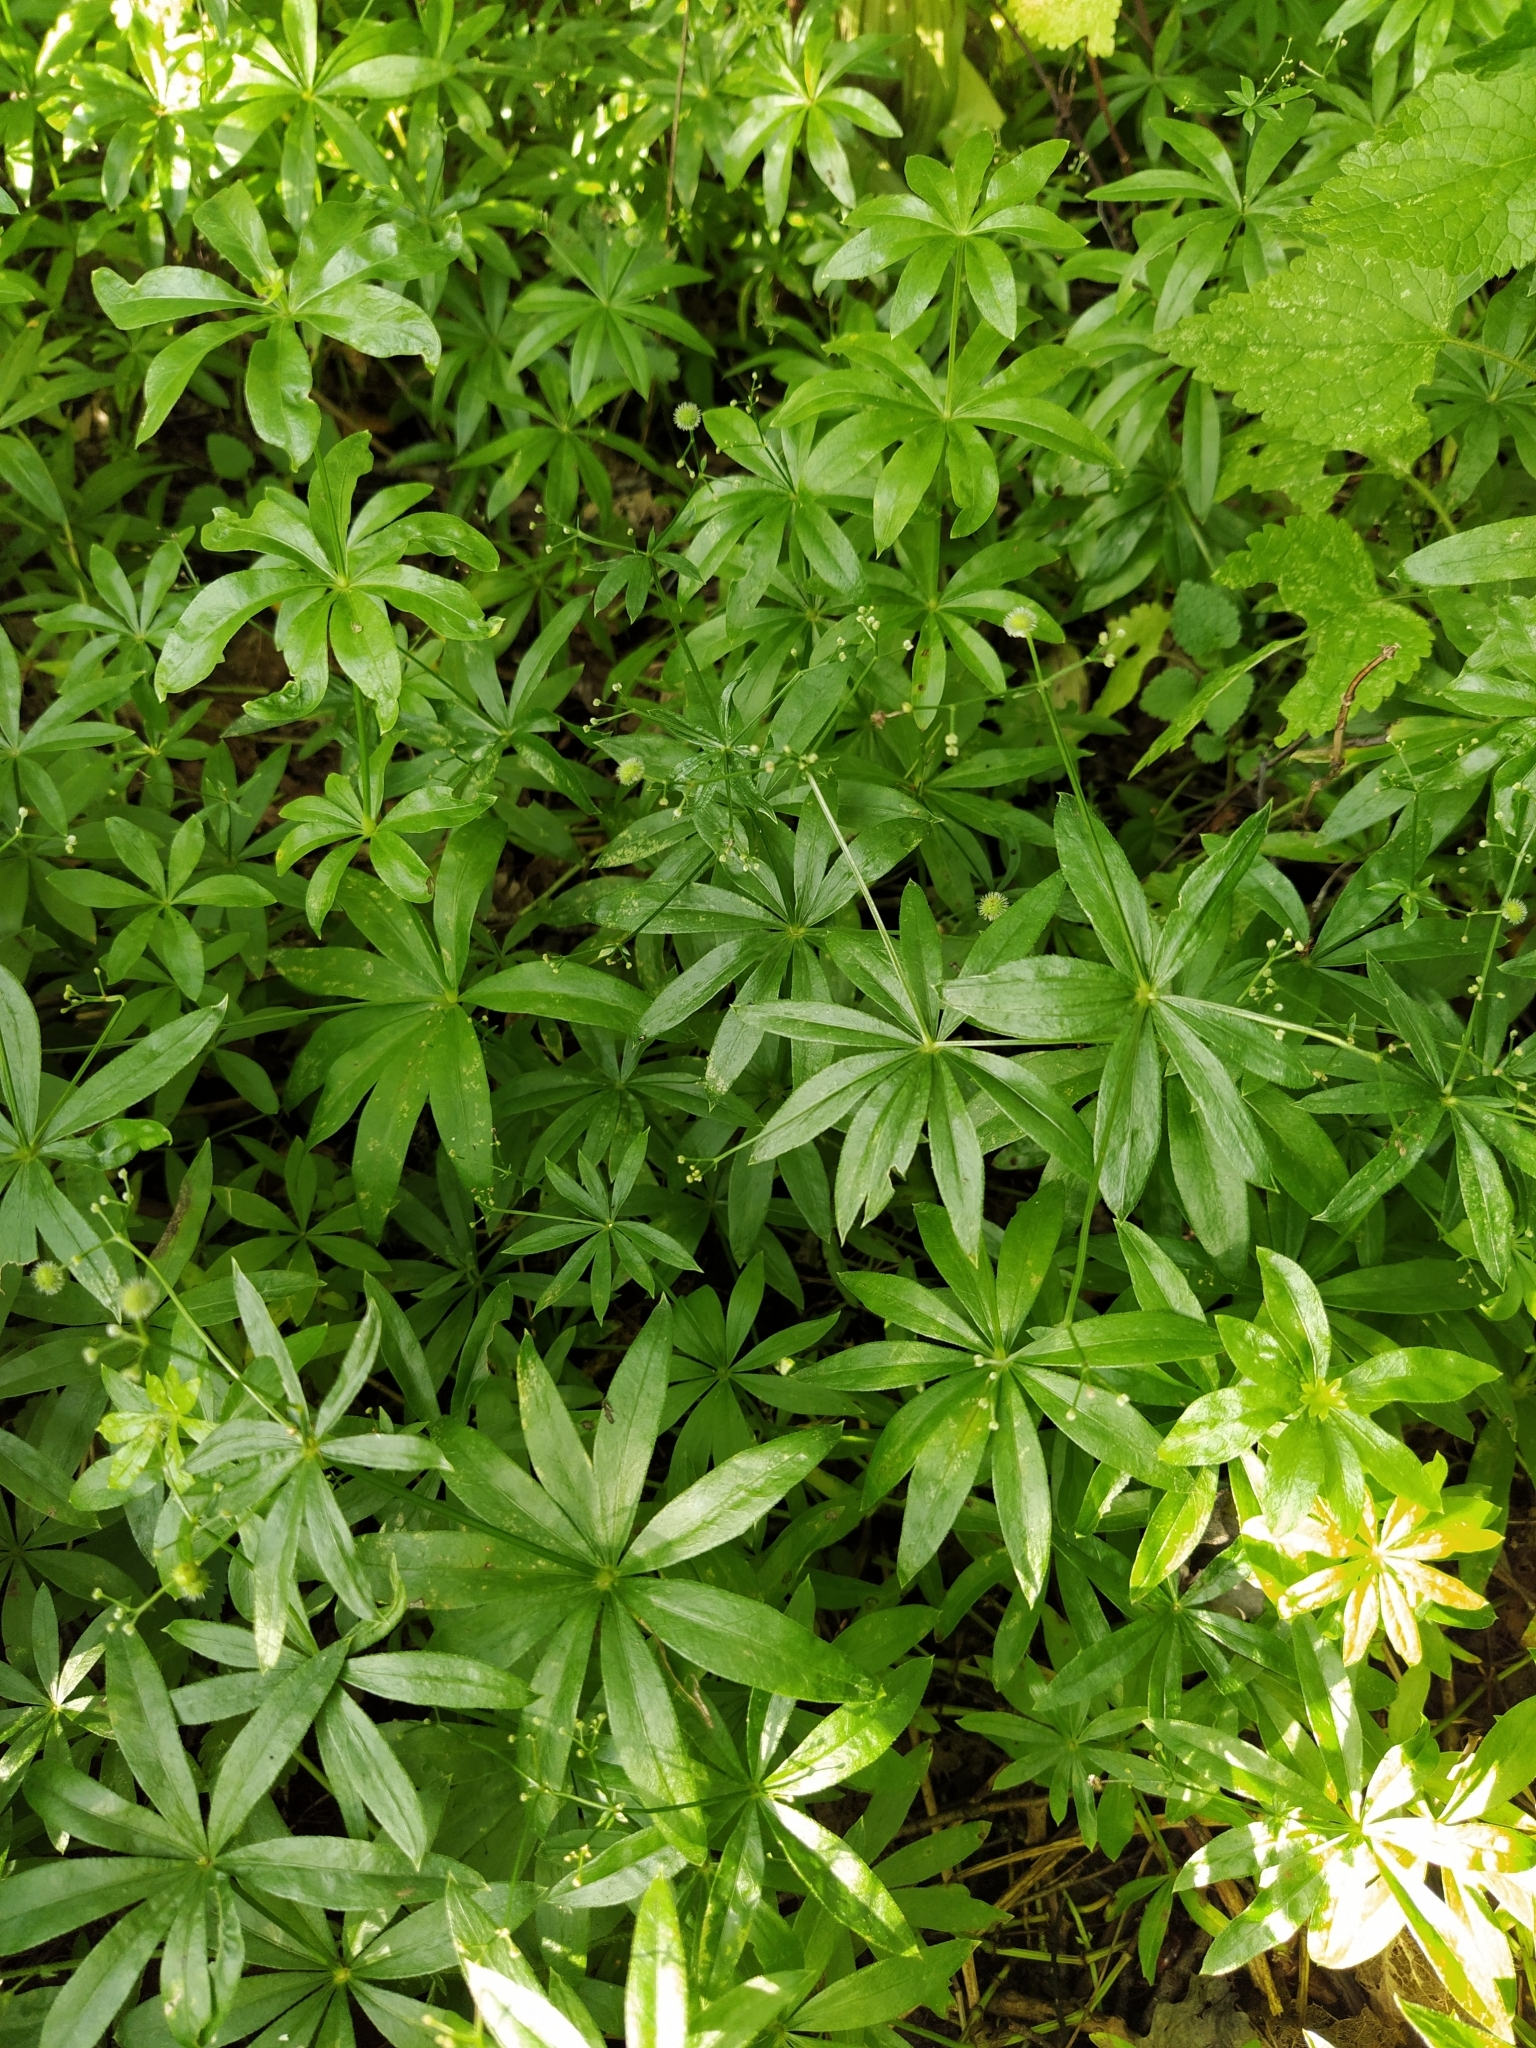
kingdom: Plantae
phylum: Tracheophyta
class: Magnoliopsida
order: Gentianales
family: Rubiaceae
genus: Galium
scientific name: Galium odoratum
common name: Sweet woodruff
